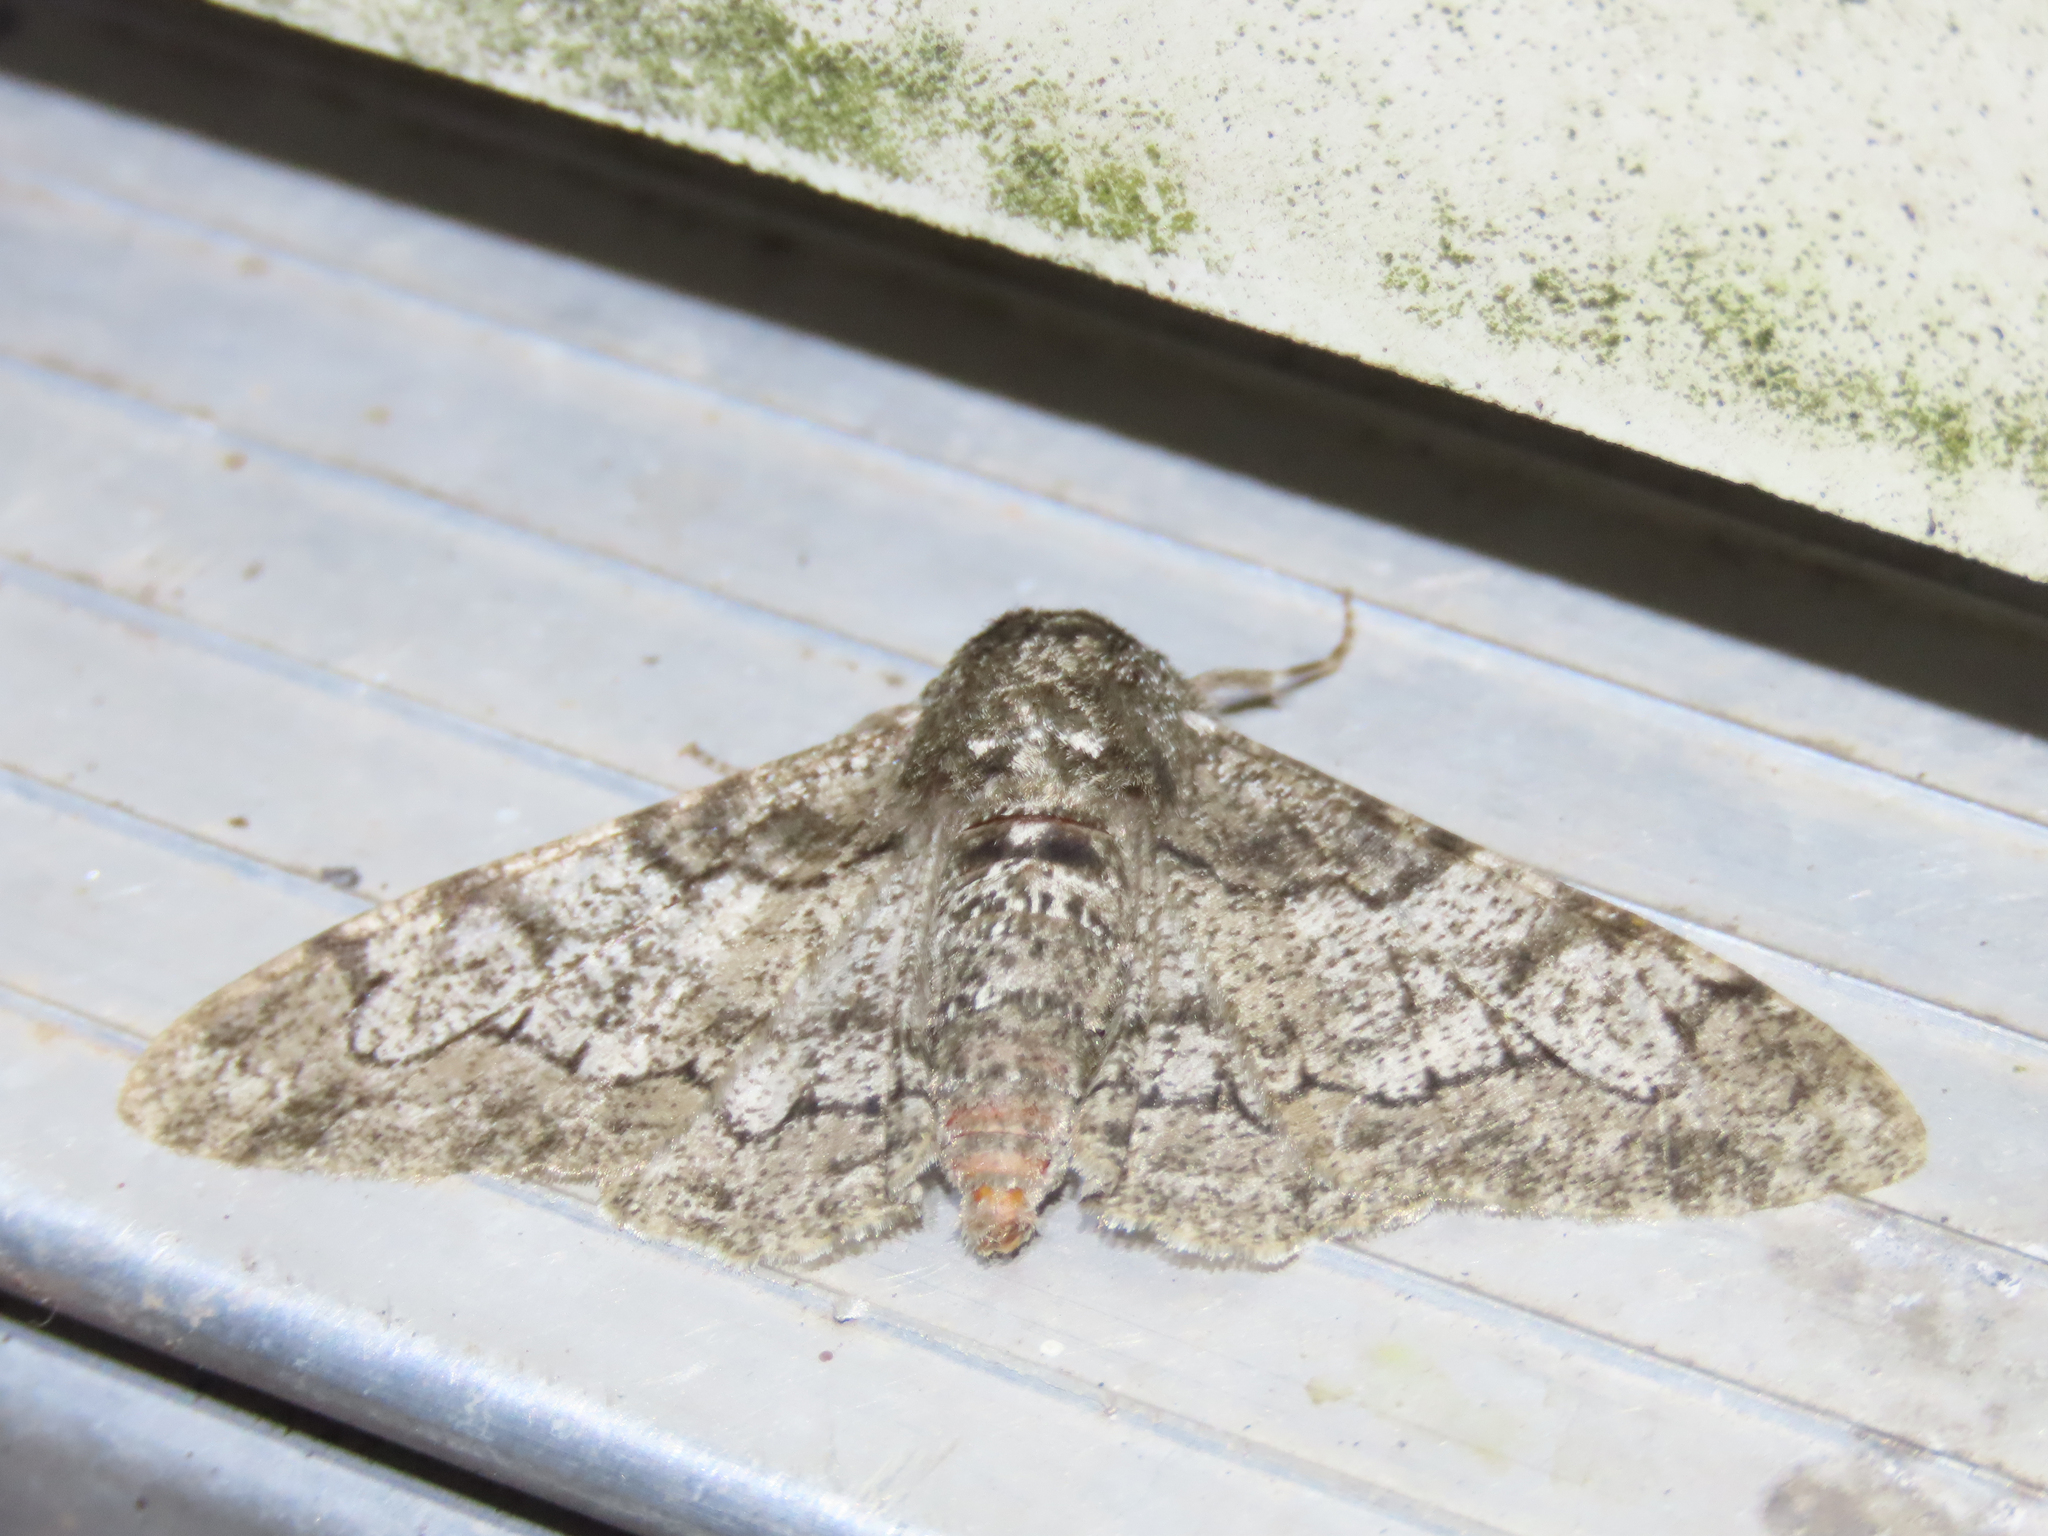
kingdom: Animalia
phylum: Arthropoda
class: Insecta
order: Lepidoptera
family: Geometridae
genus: Biston
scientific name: Biston betularia
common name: Peppered moth
